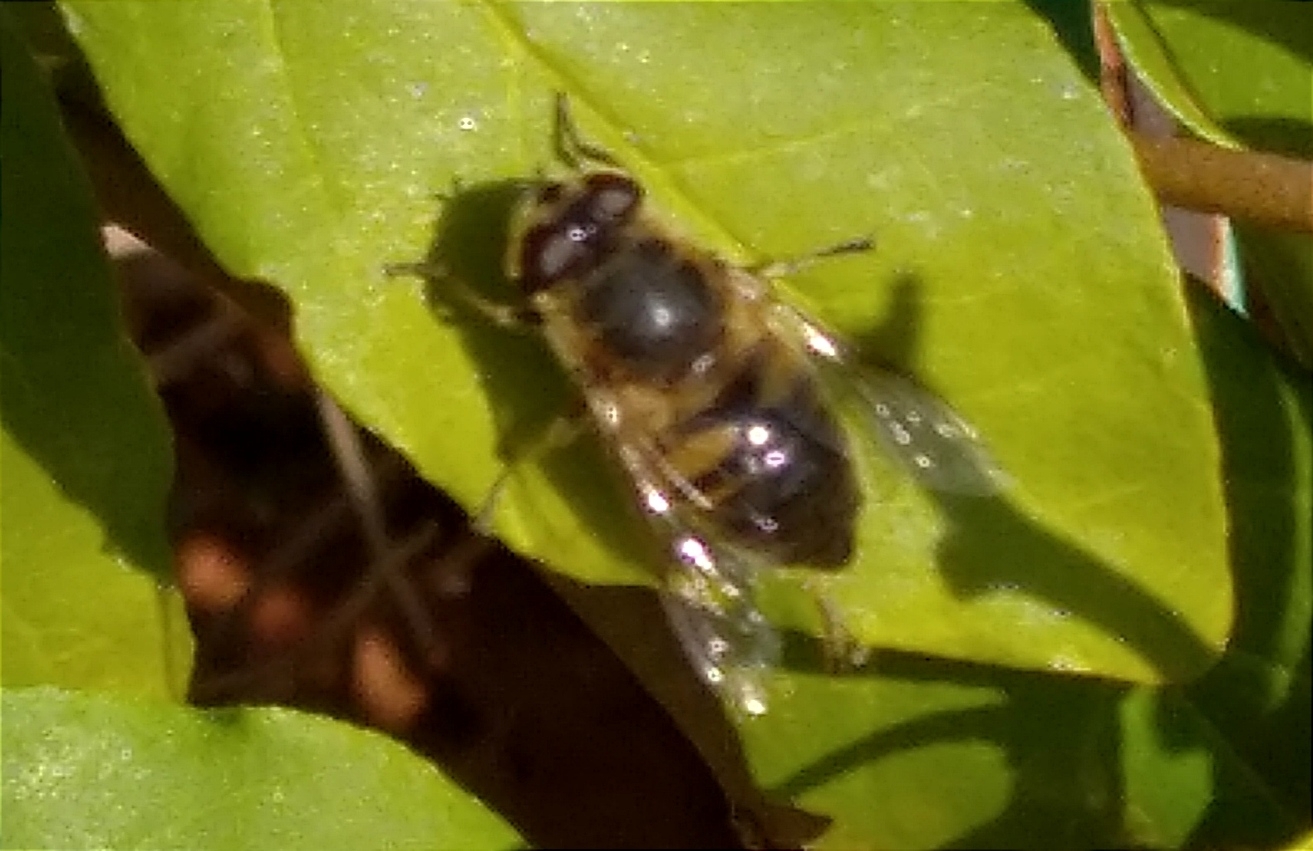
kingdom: Animalia
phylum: Arthropoda
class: Insecta
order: Diptera
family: Syrphidae
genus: Eristalis
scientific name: Eristalis tenax
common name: Drone fly
